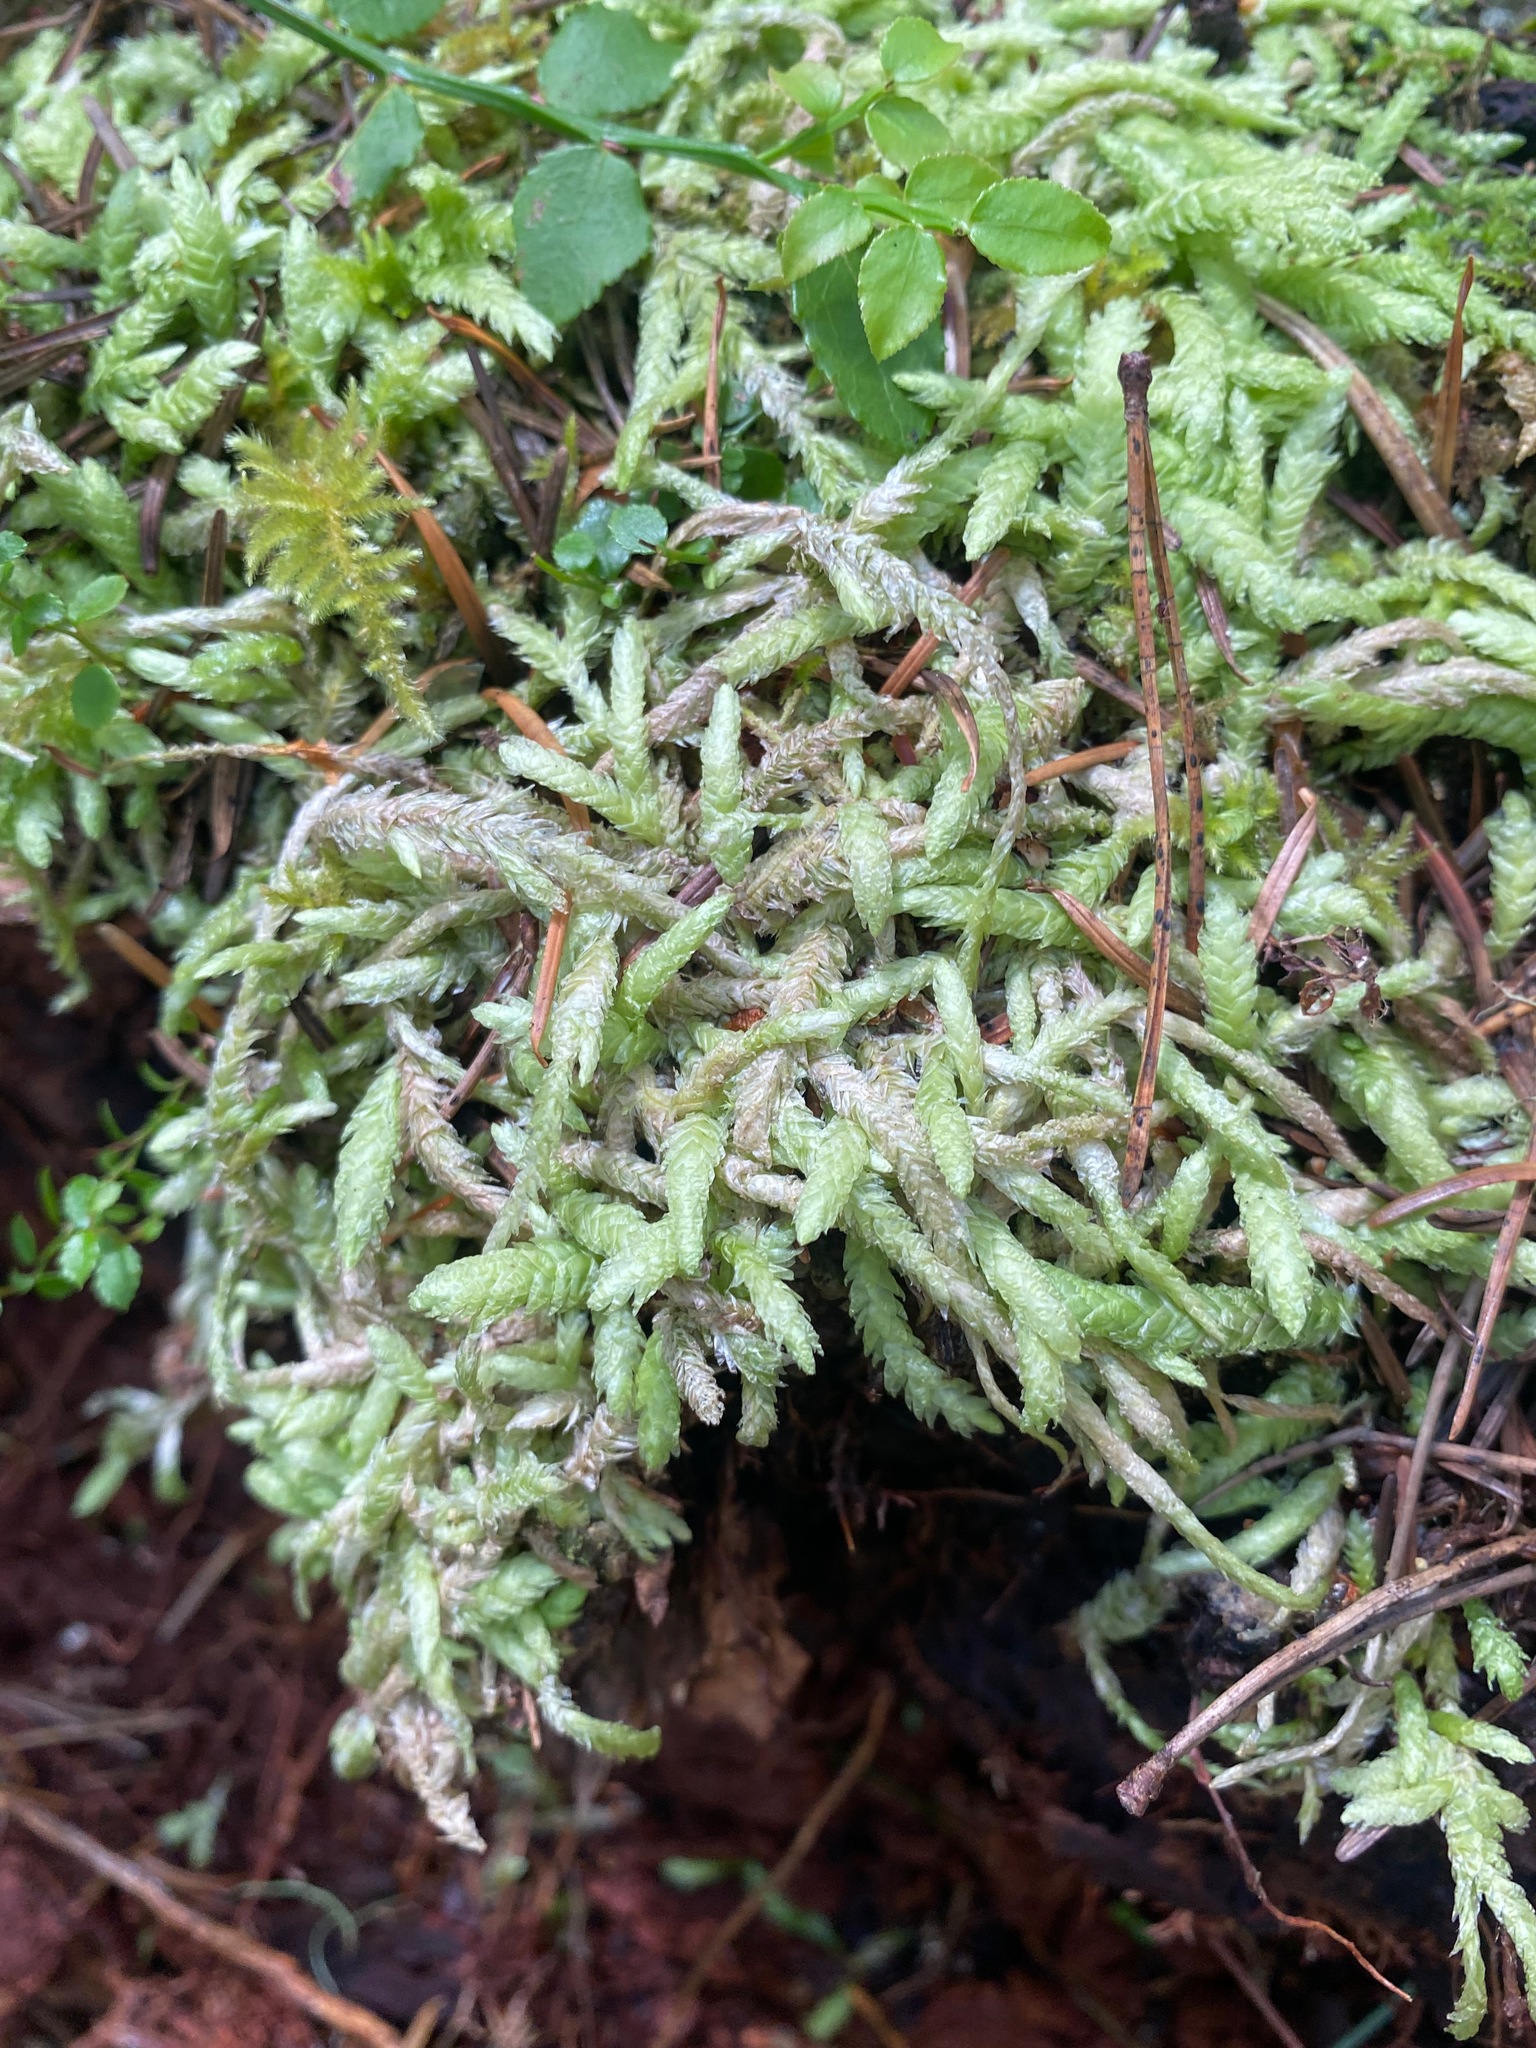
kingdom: Plantae
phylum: Bryophyta
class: Bryopsida
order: Hypnales
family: Plagiotheciaceae
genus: Plagiothecium
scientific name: Plagiothecium undulatum
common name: Waved silk-moss
